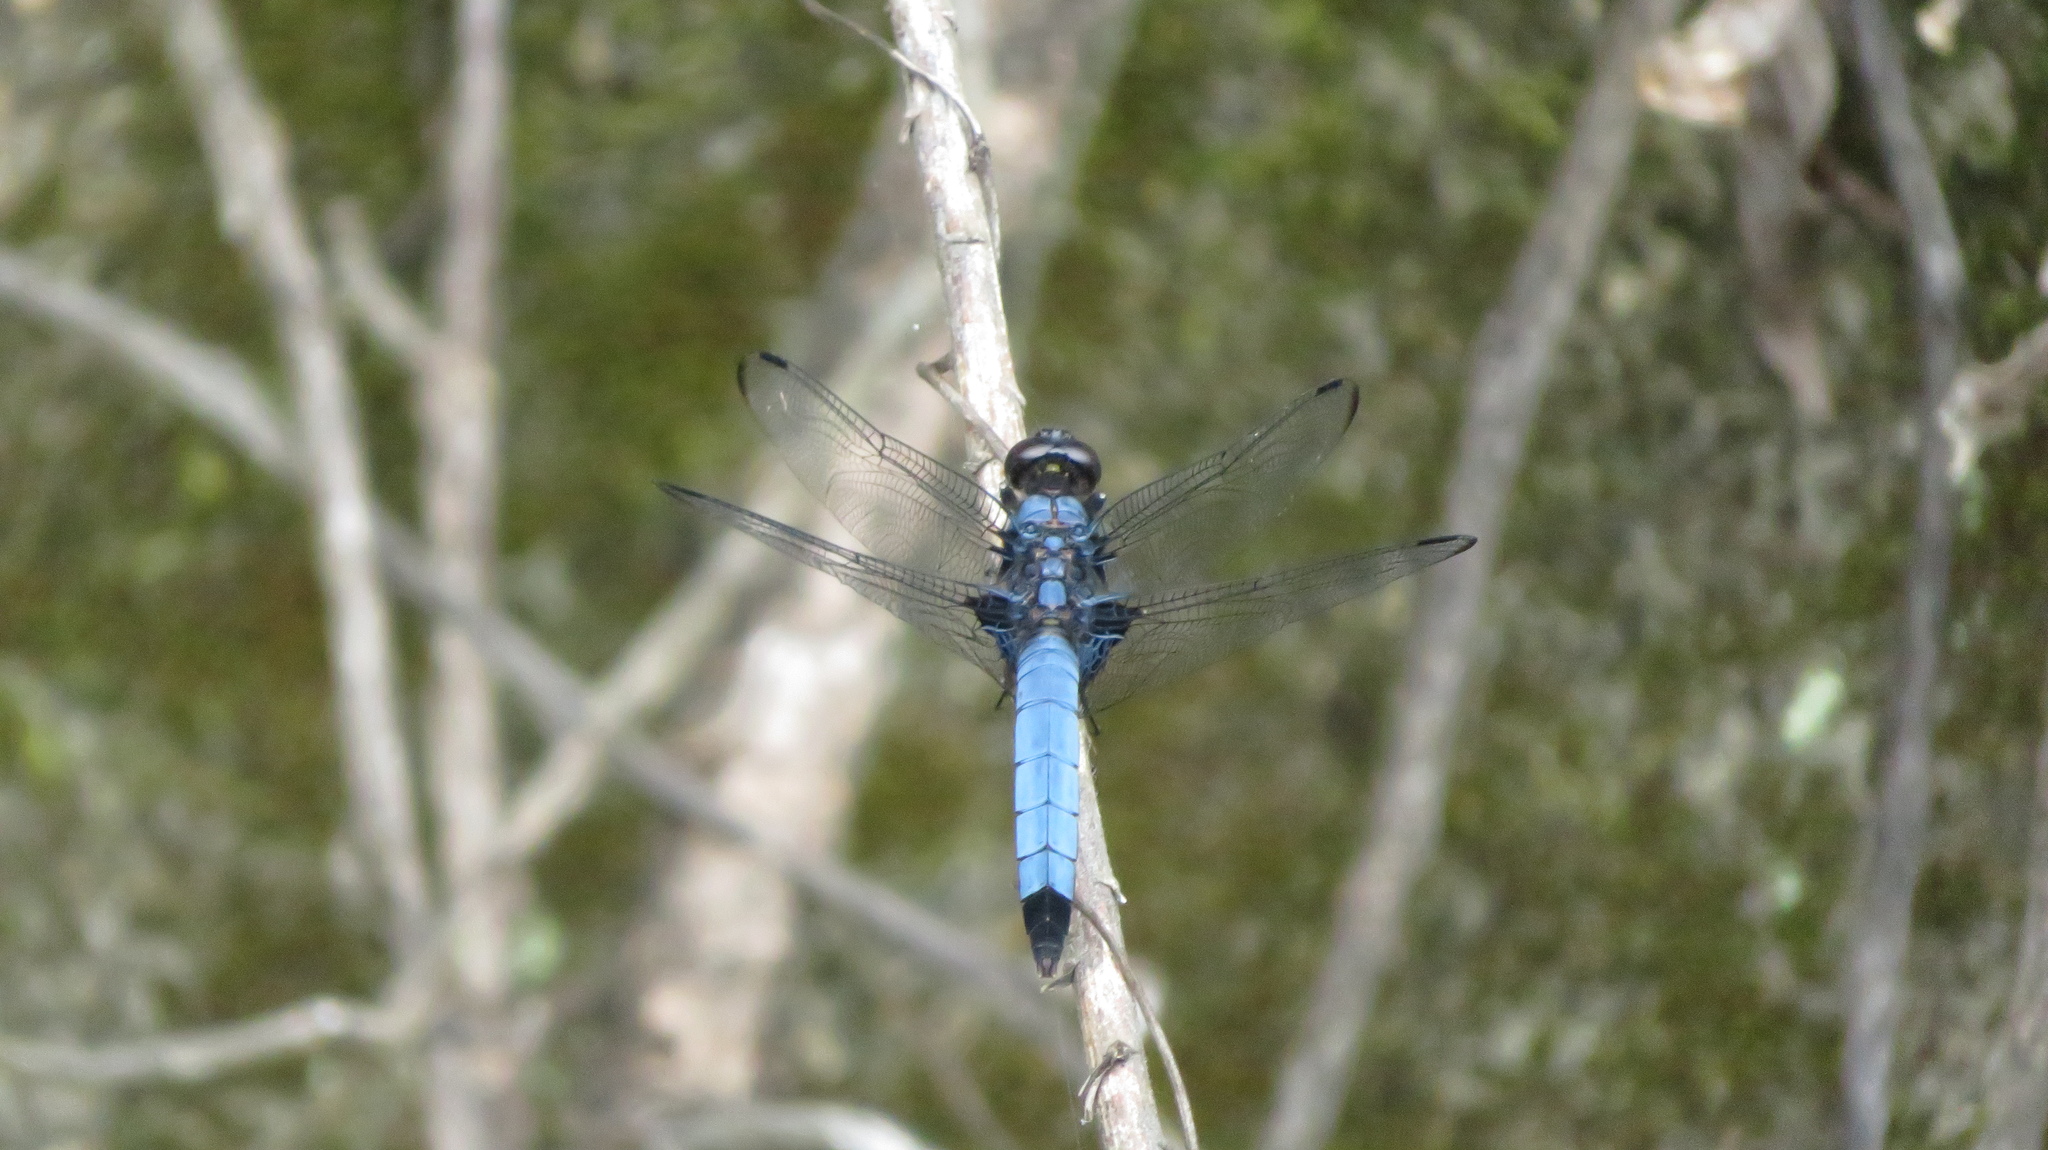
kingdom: Animalia
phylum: Arthropoda
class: Insecta
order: Odonata
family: Libellulidae
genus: Orthetrum
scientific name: Orthetrum melania
